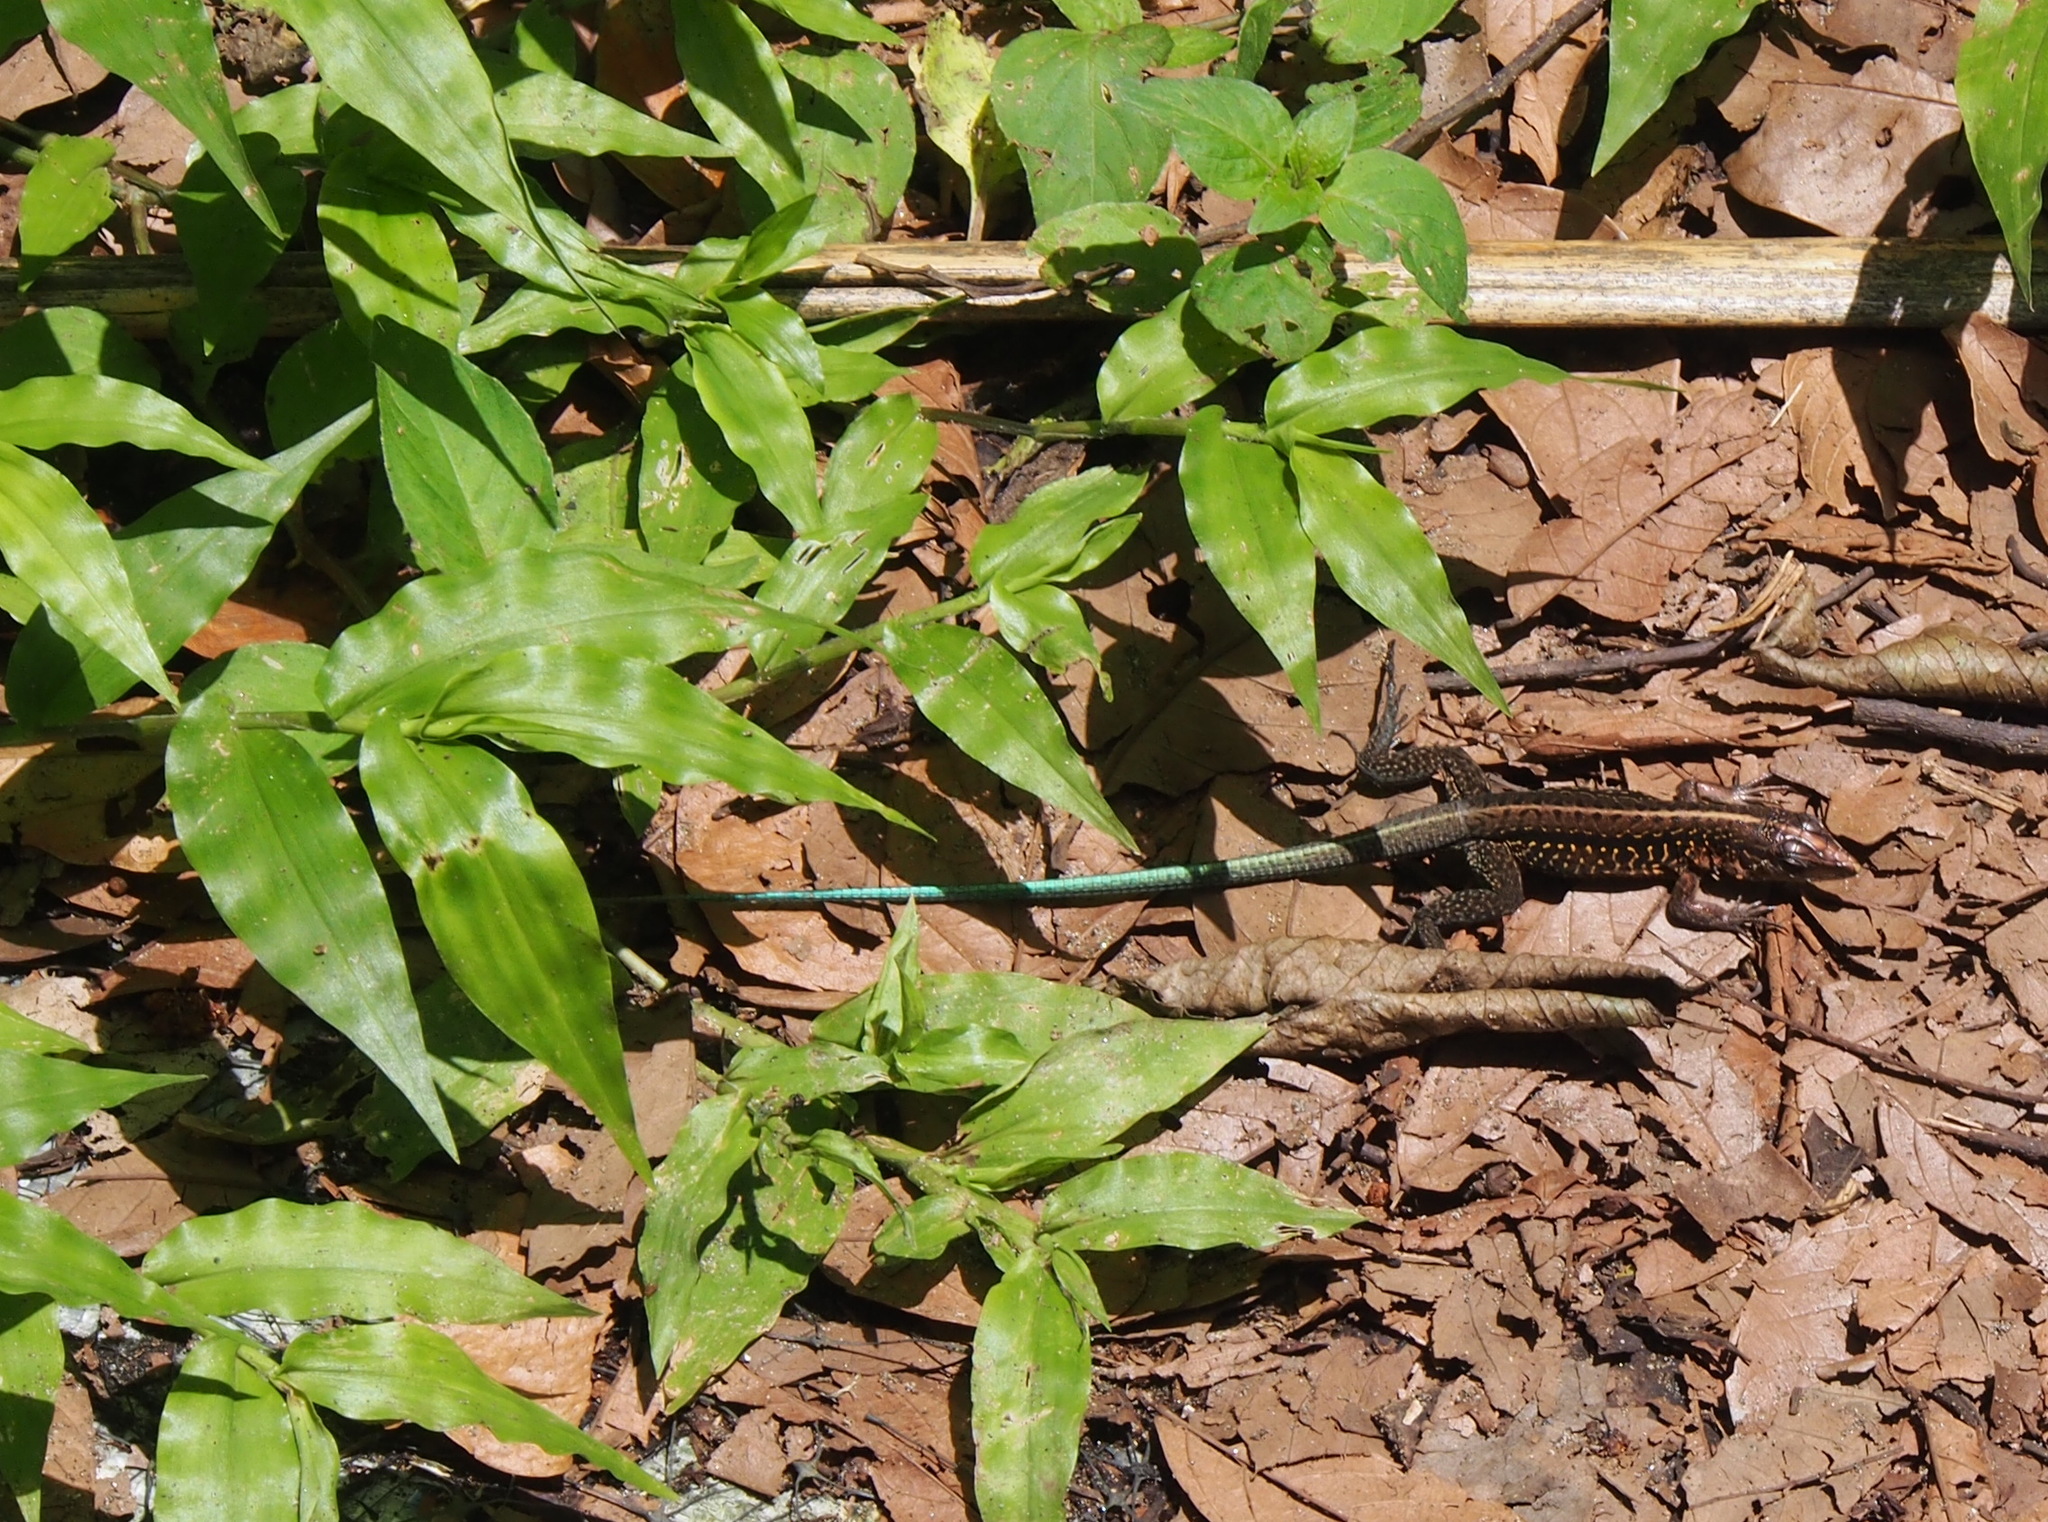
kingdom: Animalia
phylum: Chordata
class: Squamata
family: Teiidae
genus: Holcosus
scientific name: Holcosus festivus
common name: Middle american ameiva
